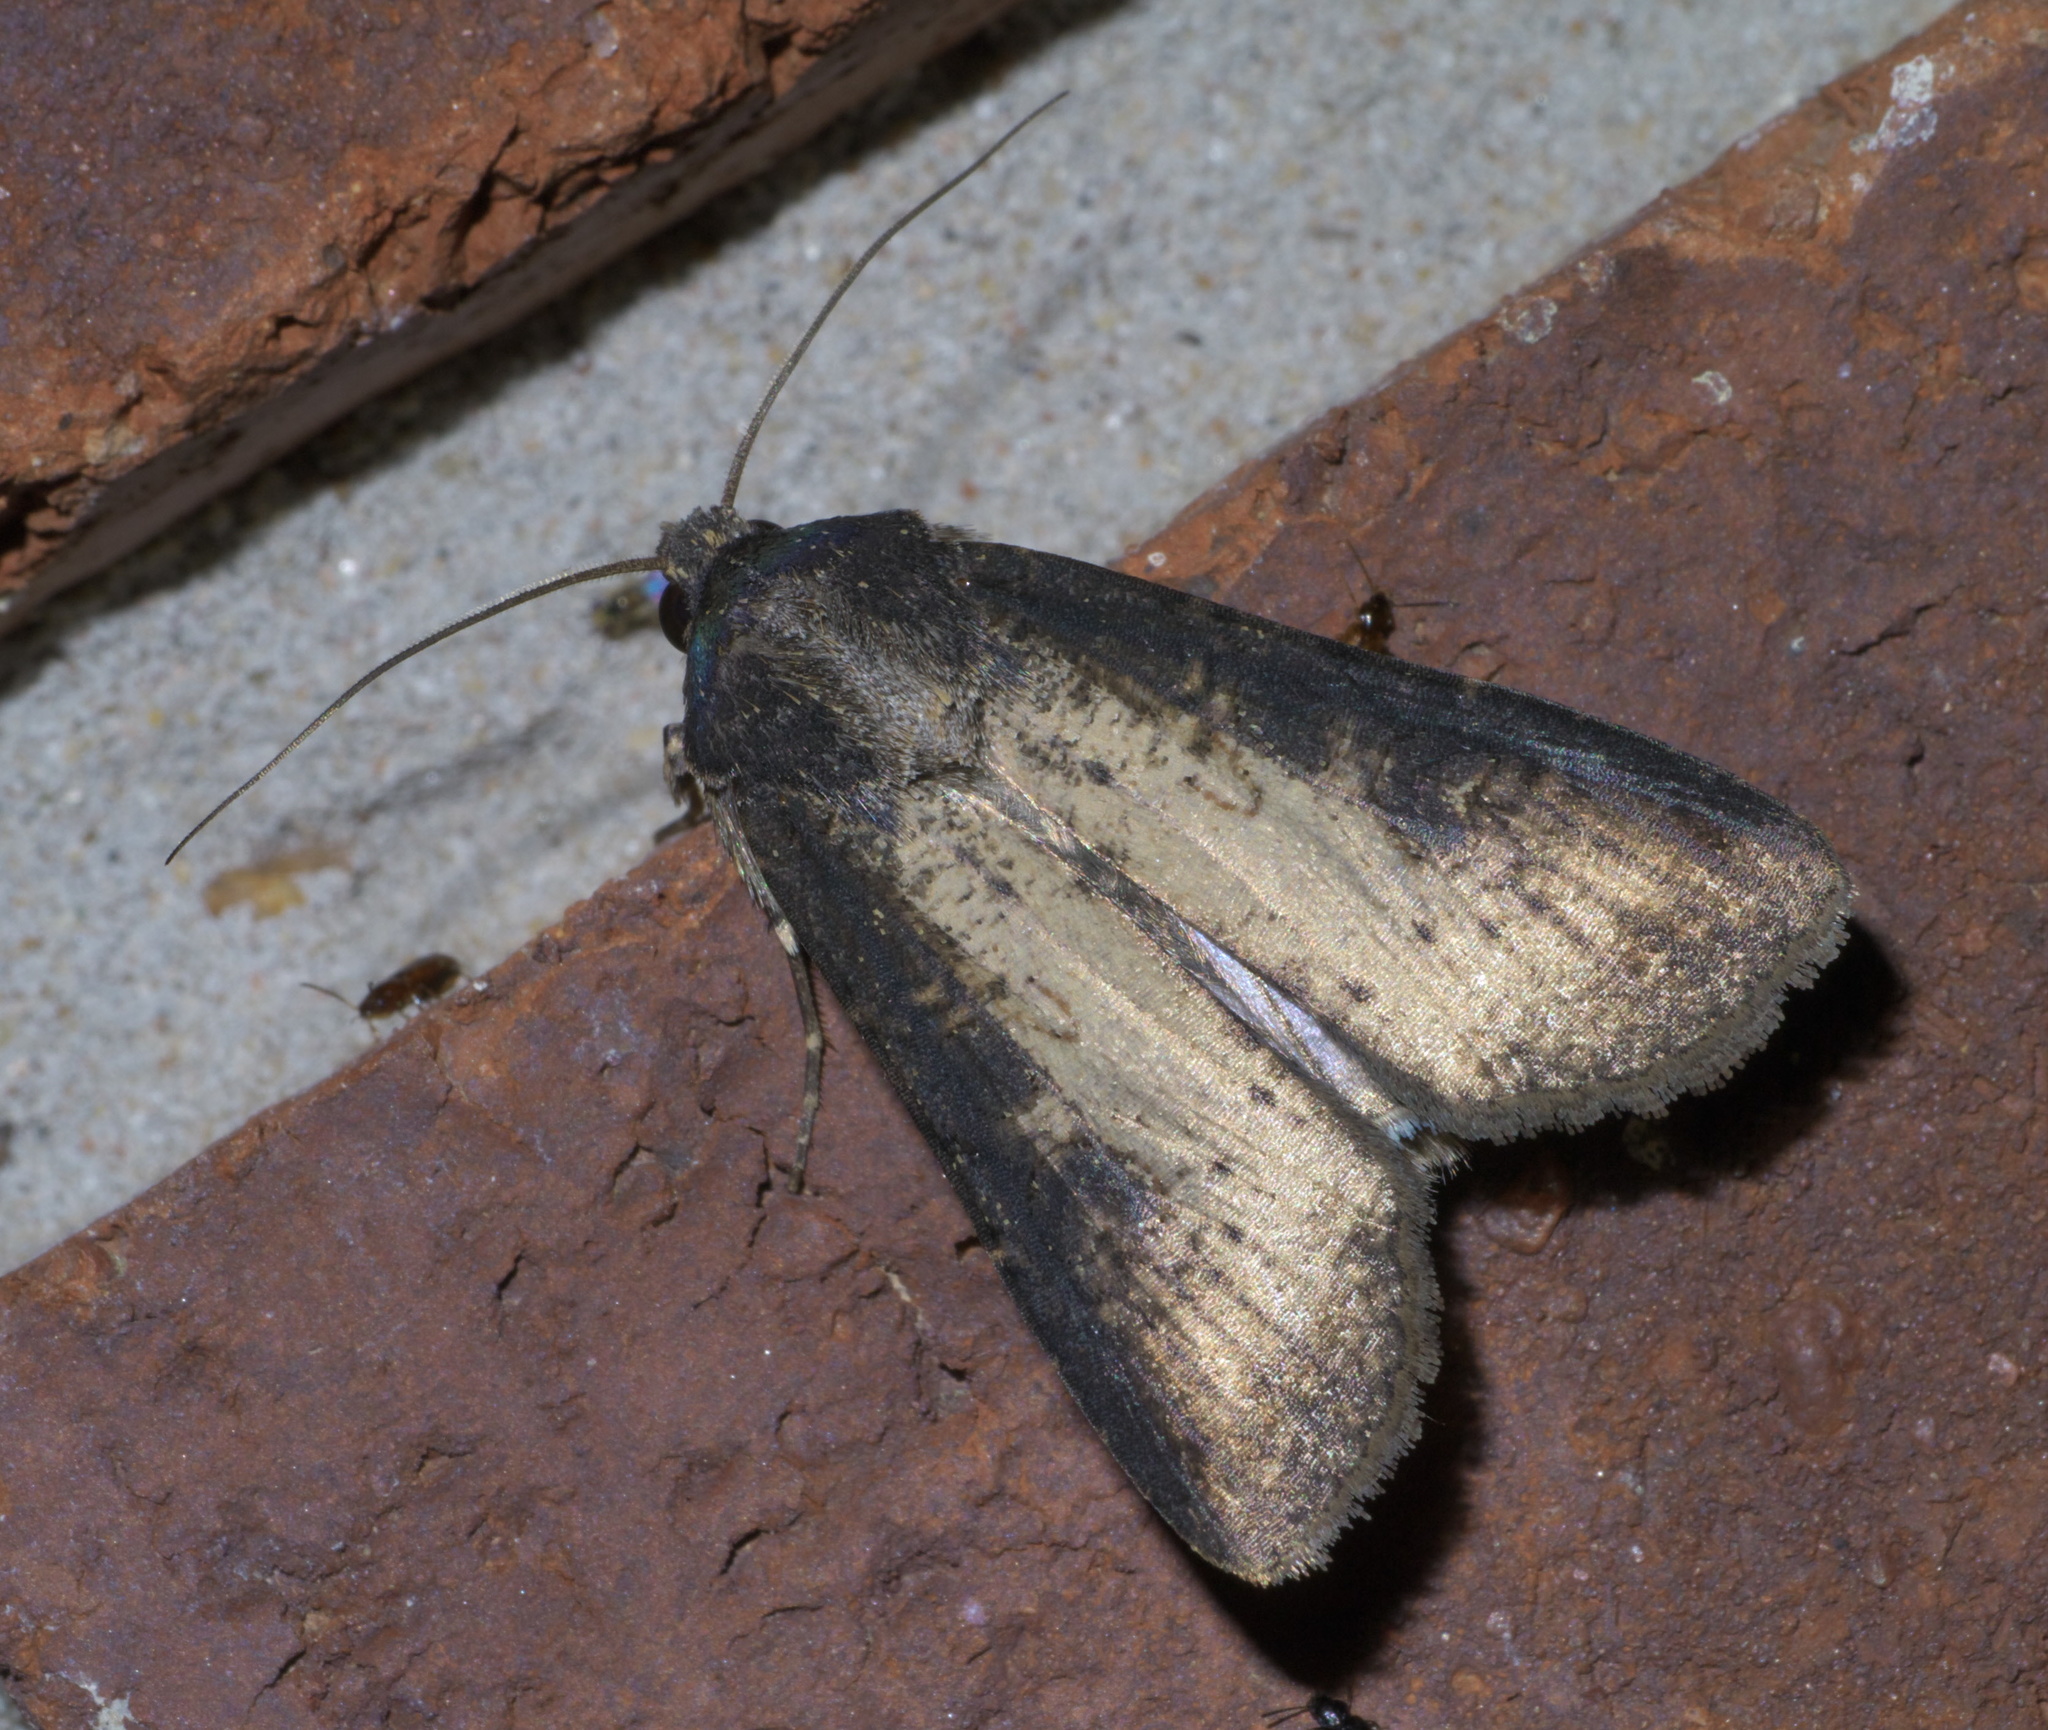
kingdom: Animalia
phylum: Arthropoda
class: Insecta
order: Lepidoptera
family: Noctuidae
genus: Agrotis
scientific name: Agrotis ipsilon
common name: Dark sword-grass
